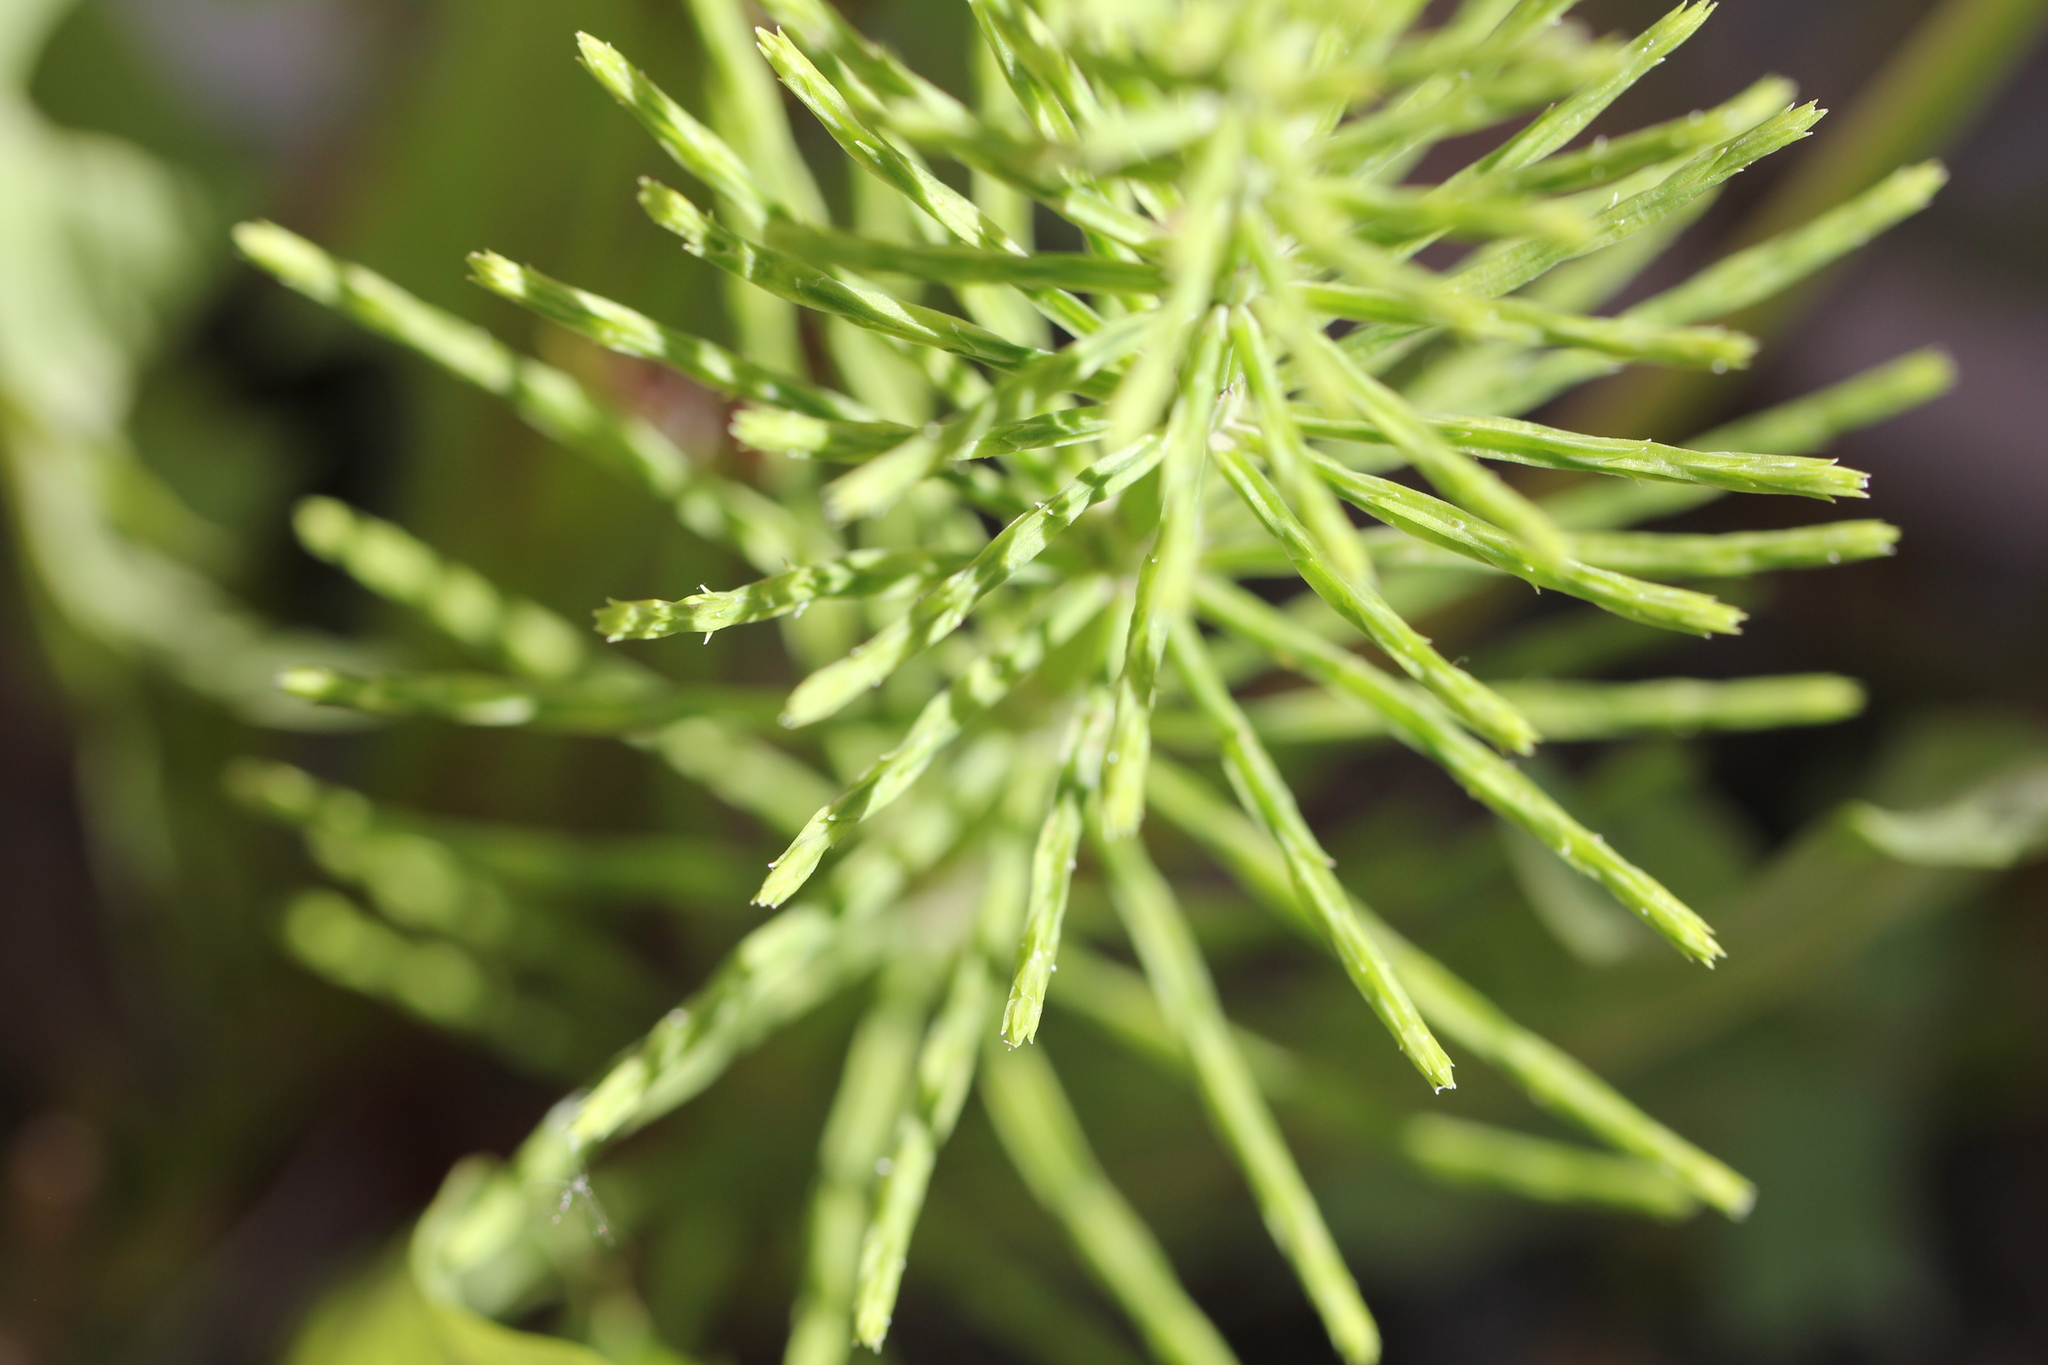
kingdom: Plantae
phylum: Tracheophyta
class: Polypodiopsida
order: Equisetales
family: Equisetaceae
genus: Equisetum
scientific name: Equisetum arvense
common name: Field horsetail
